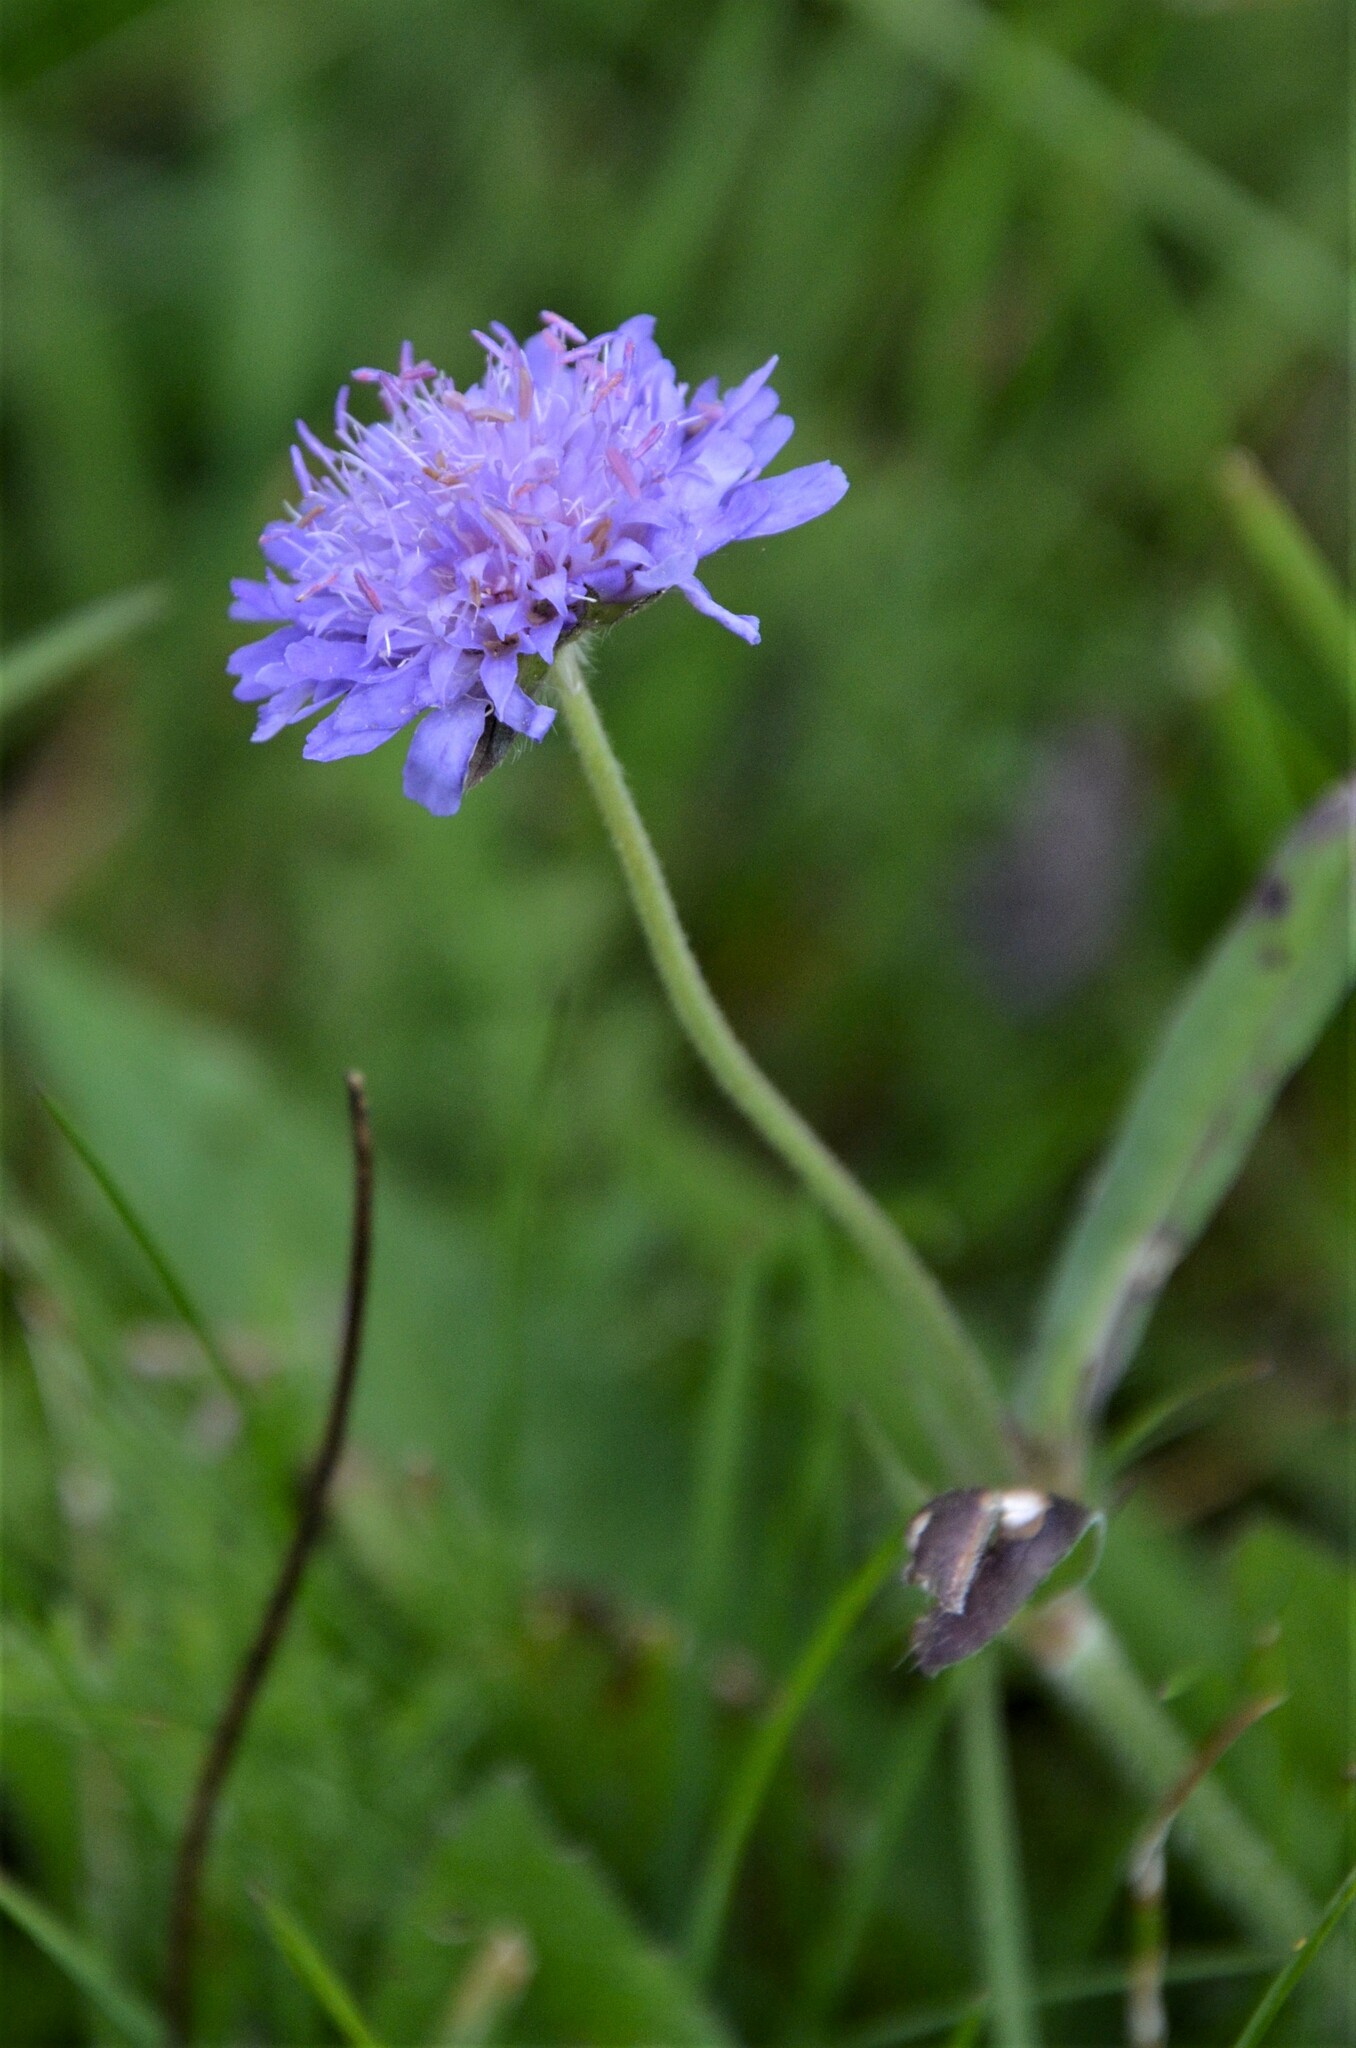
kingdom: Plantae
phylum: Tracheophyta
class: Magnoliopsida
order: Dipsacales
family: Caprifoliaceae
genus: Knautia
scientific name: Knautia arvensis
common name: Field scabiosa
